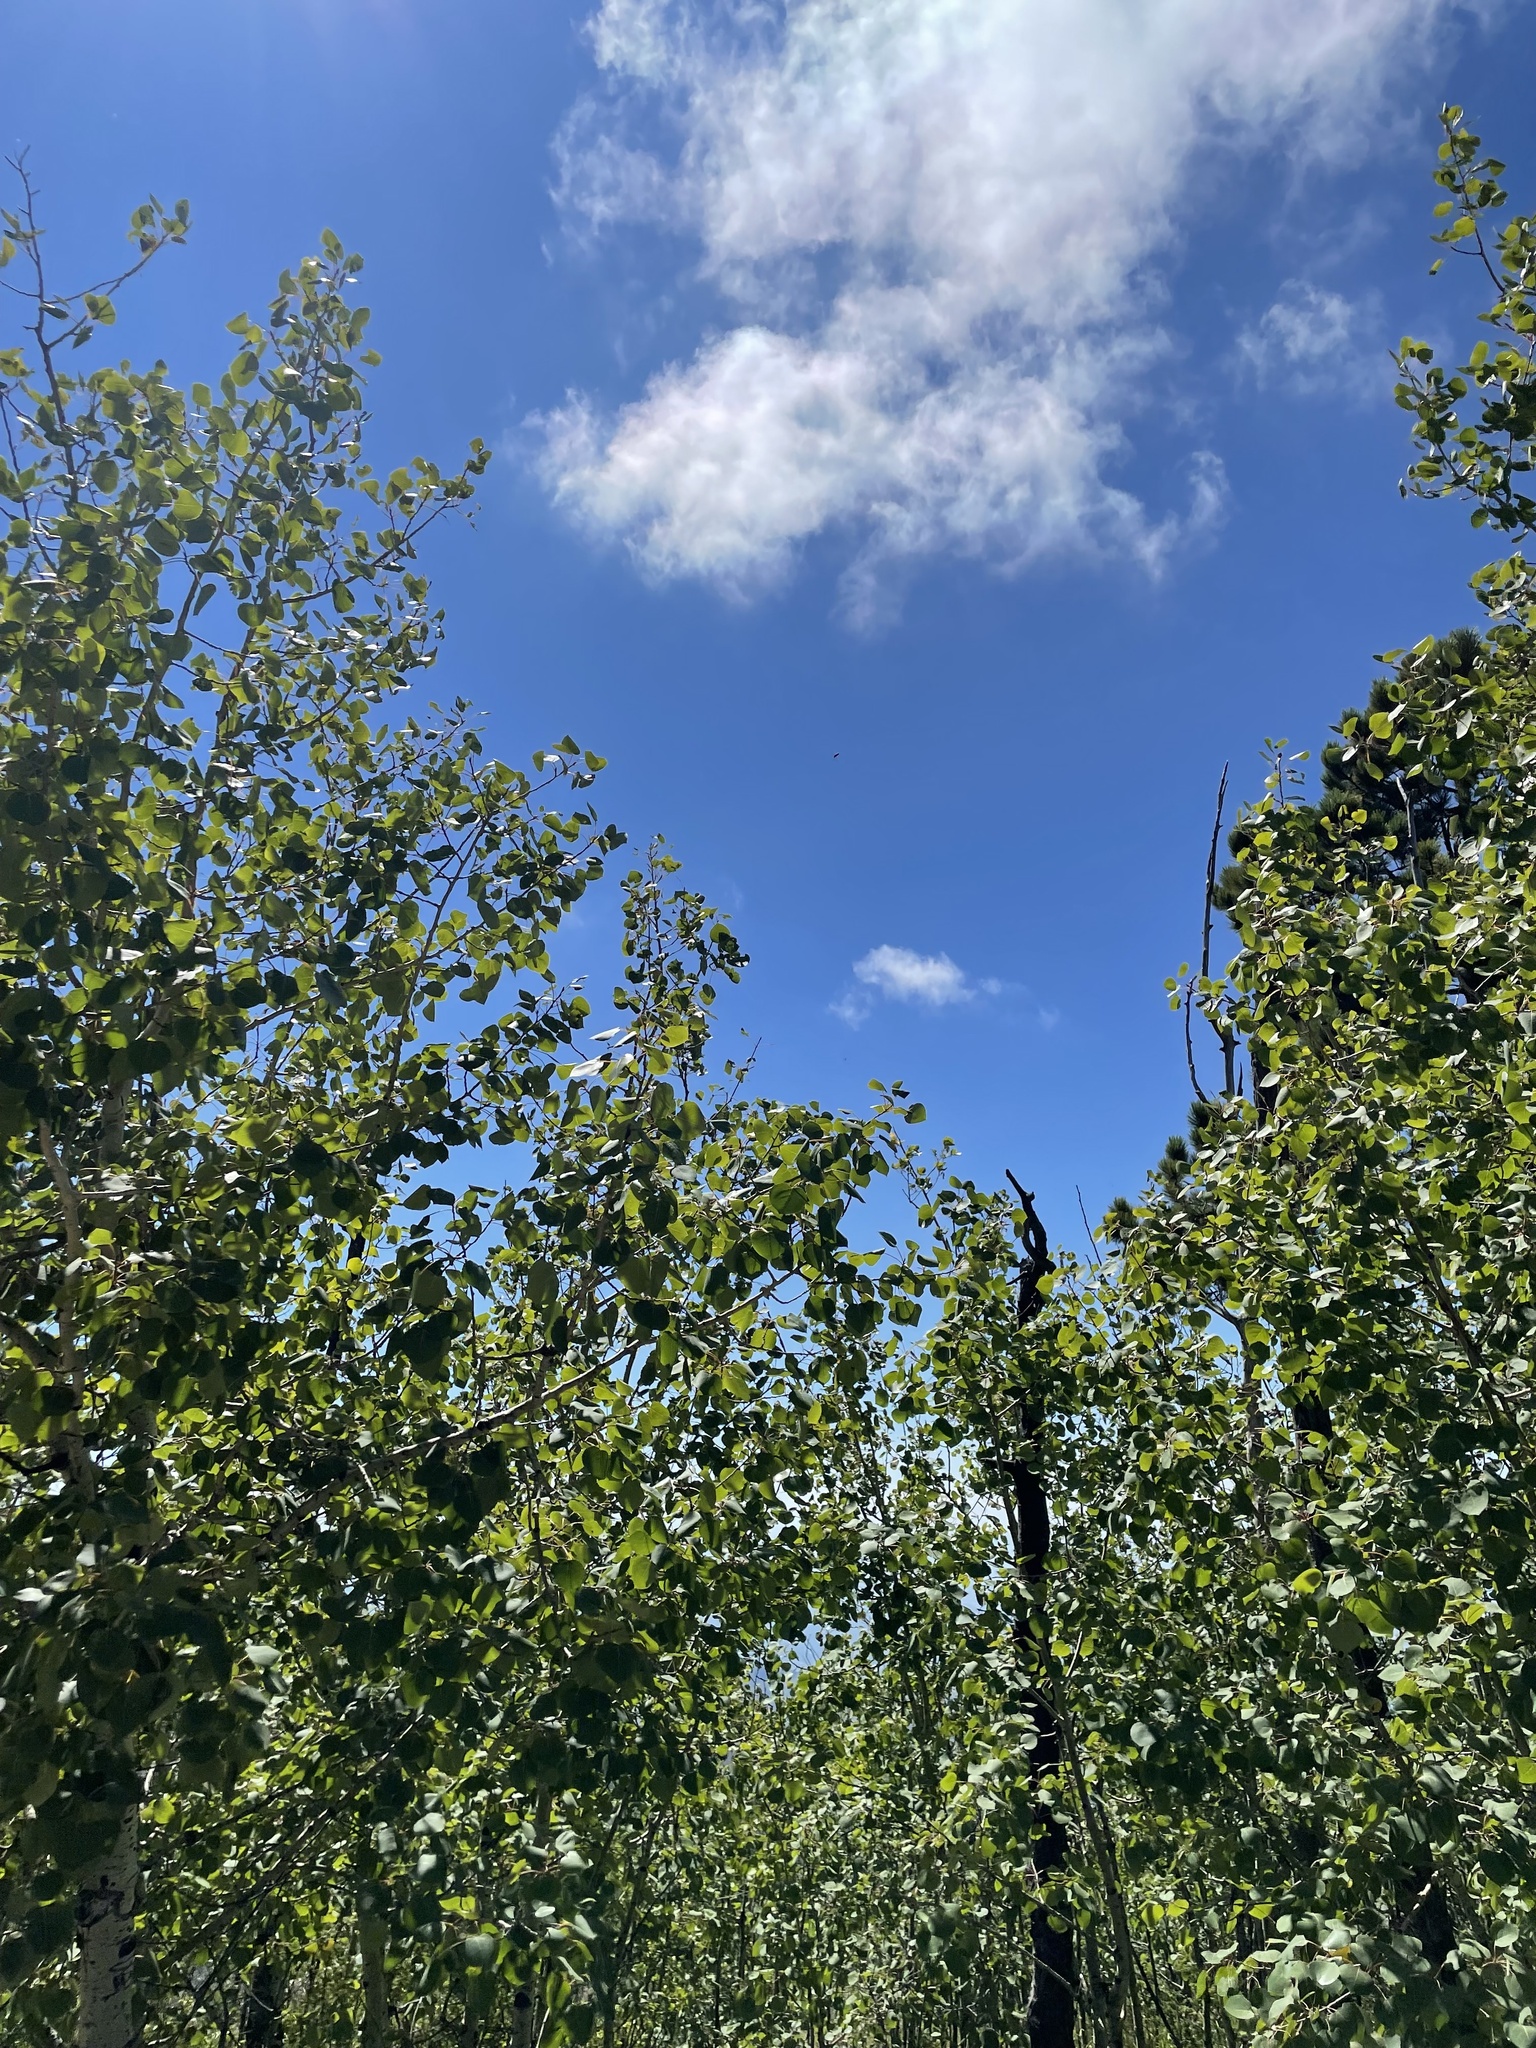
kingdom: Plantae
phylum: Tracheophyta
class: Magnoliopsida
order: Malpighiales
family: Salicaceae
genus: Populus
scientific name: Populus tremuloides
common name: Quaking aspen
